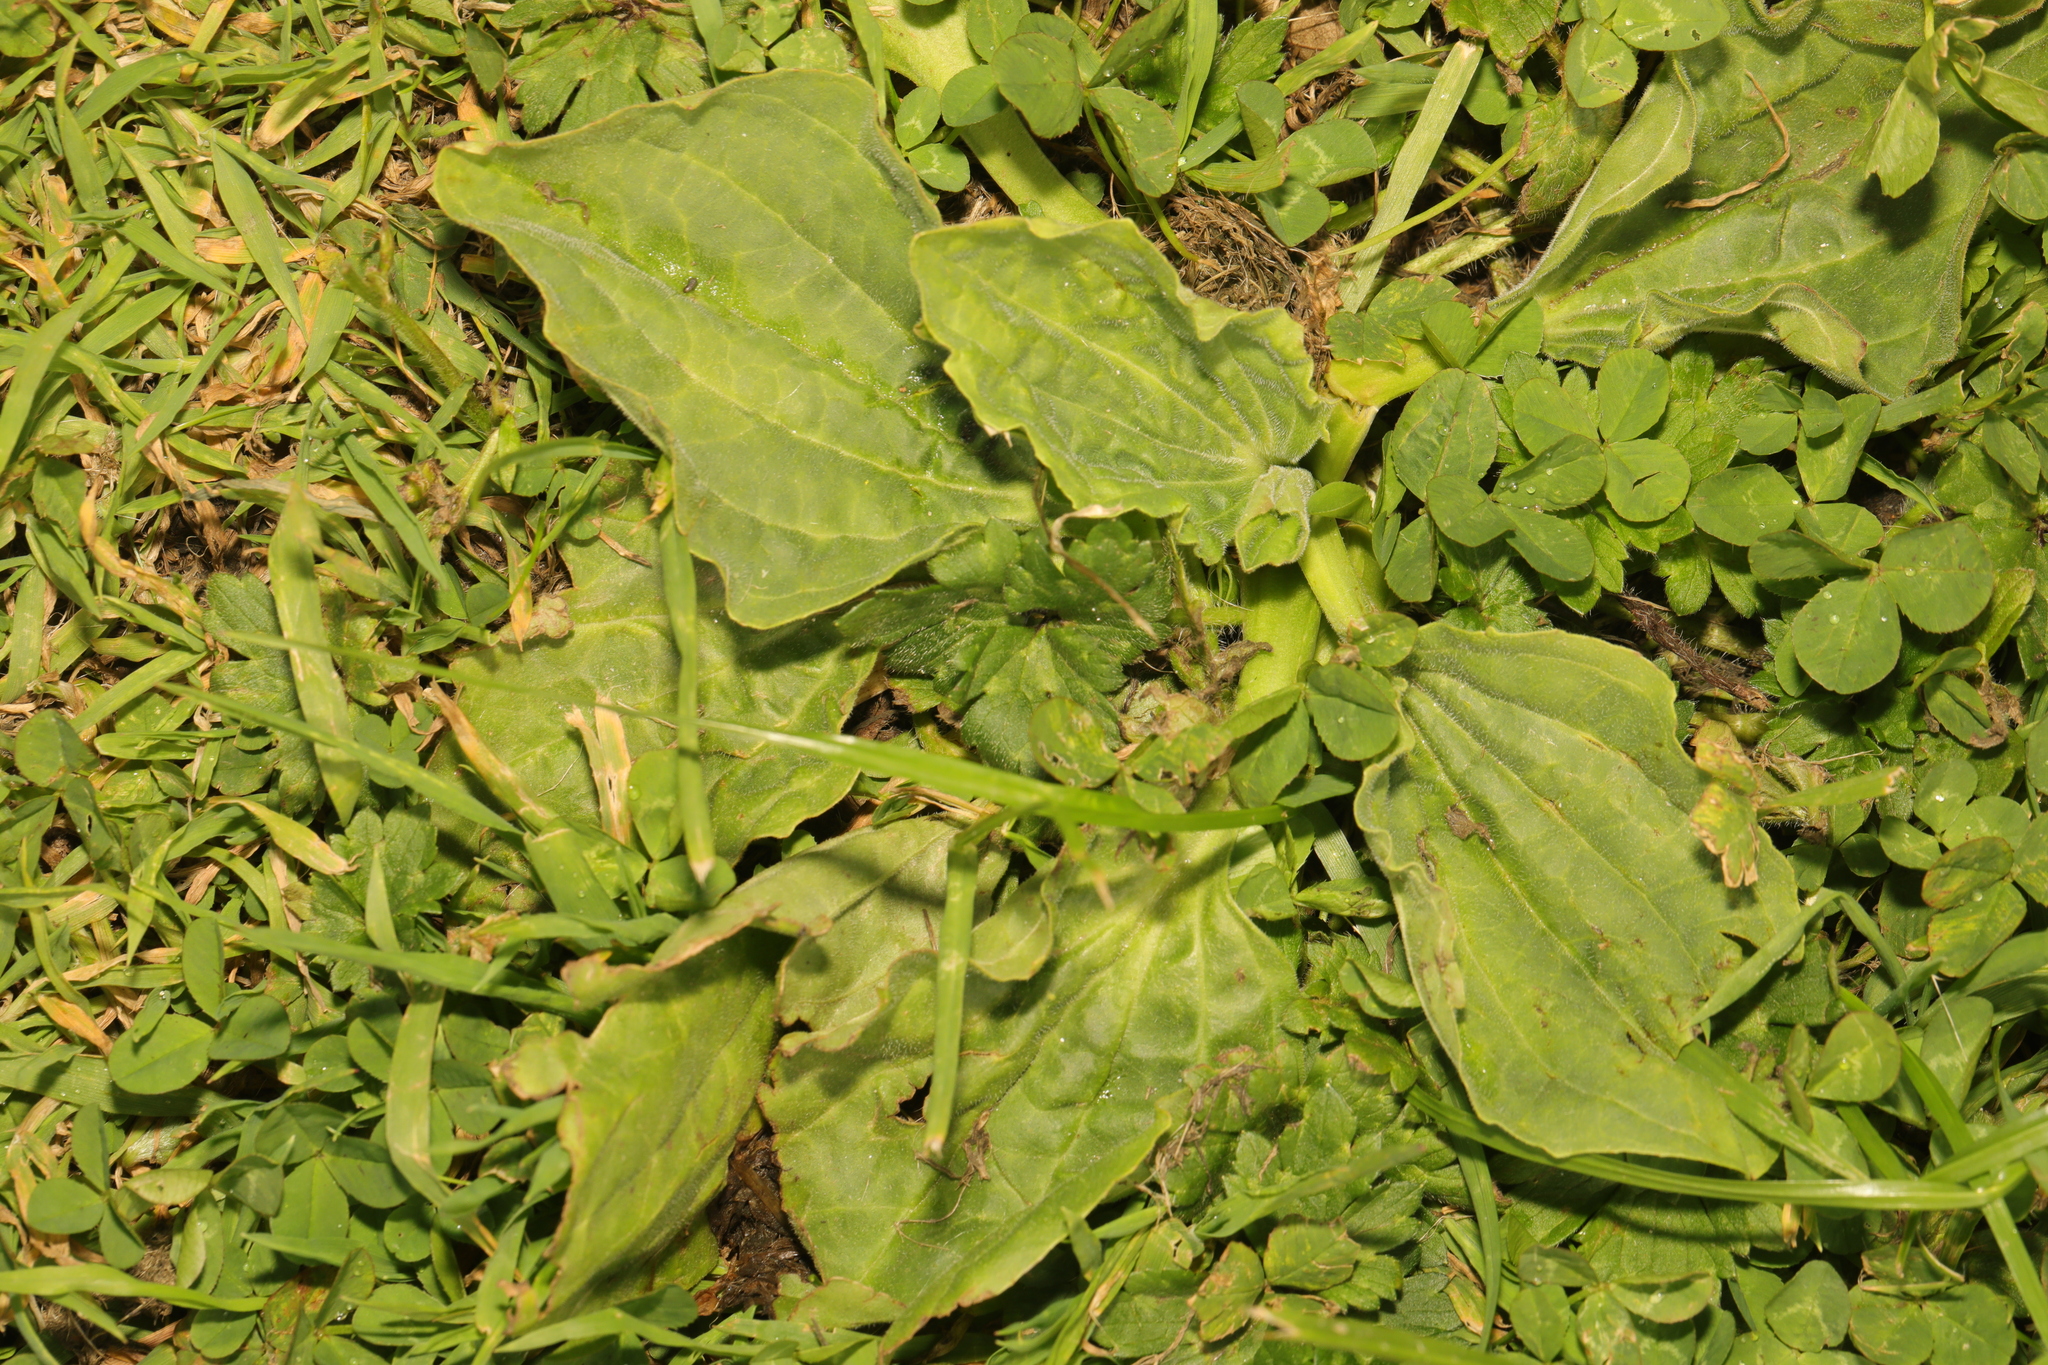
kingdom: Plantae
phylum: Tracheophyta
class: Magnoliopsida
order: Lamiales
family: Plantaginaceae
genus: Plantago
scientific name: Plantago major
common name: Common plantain
